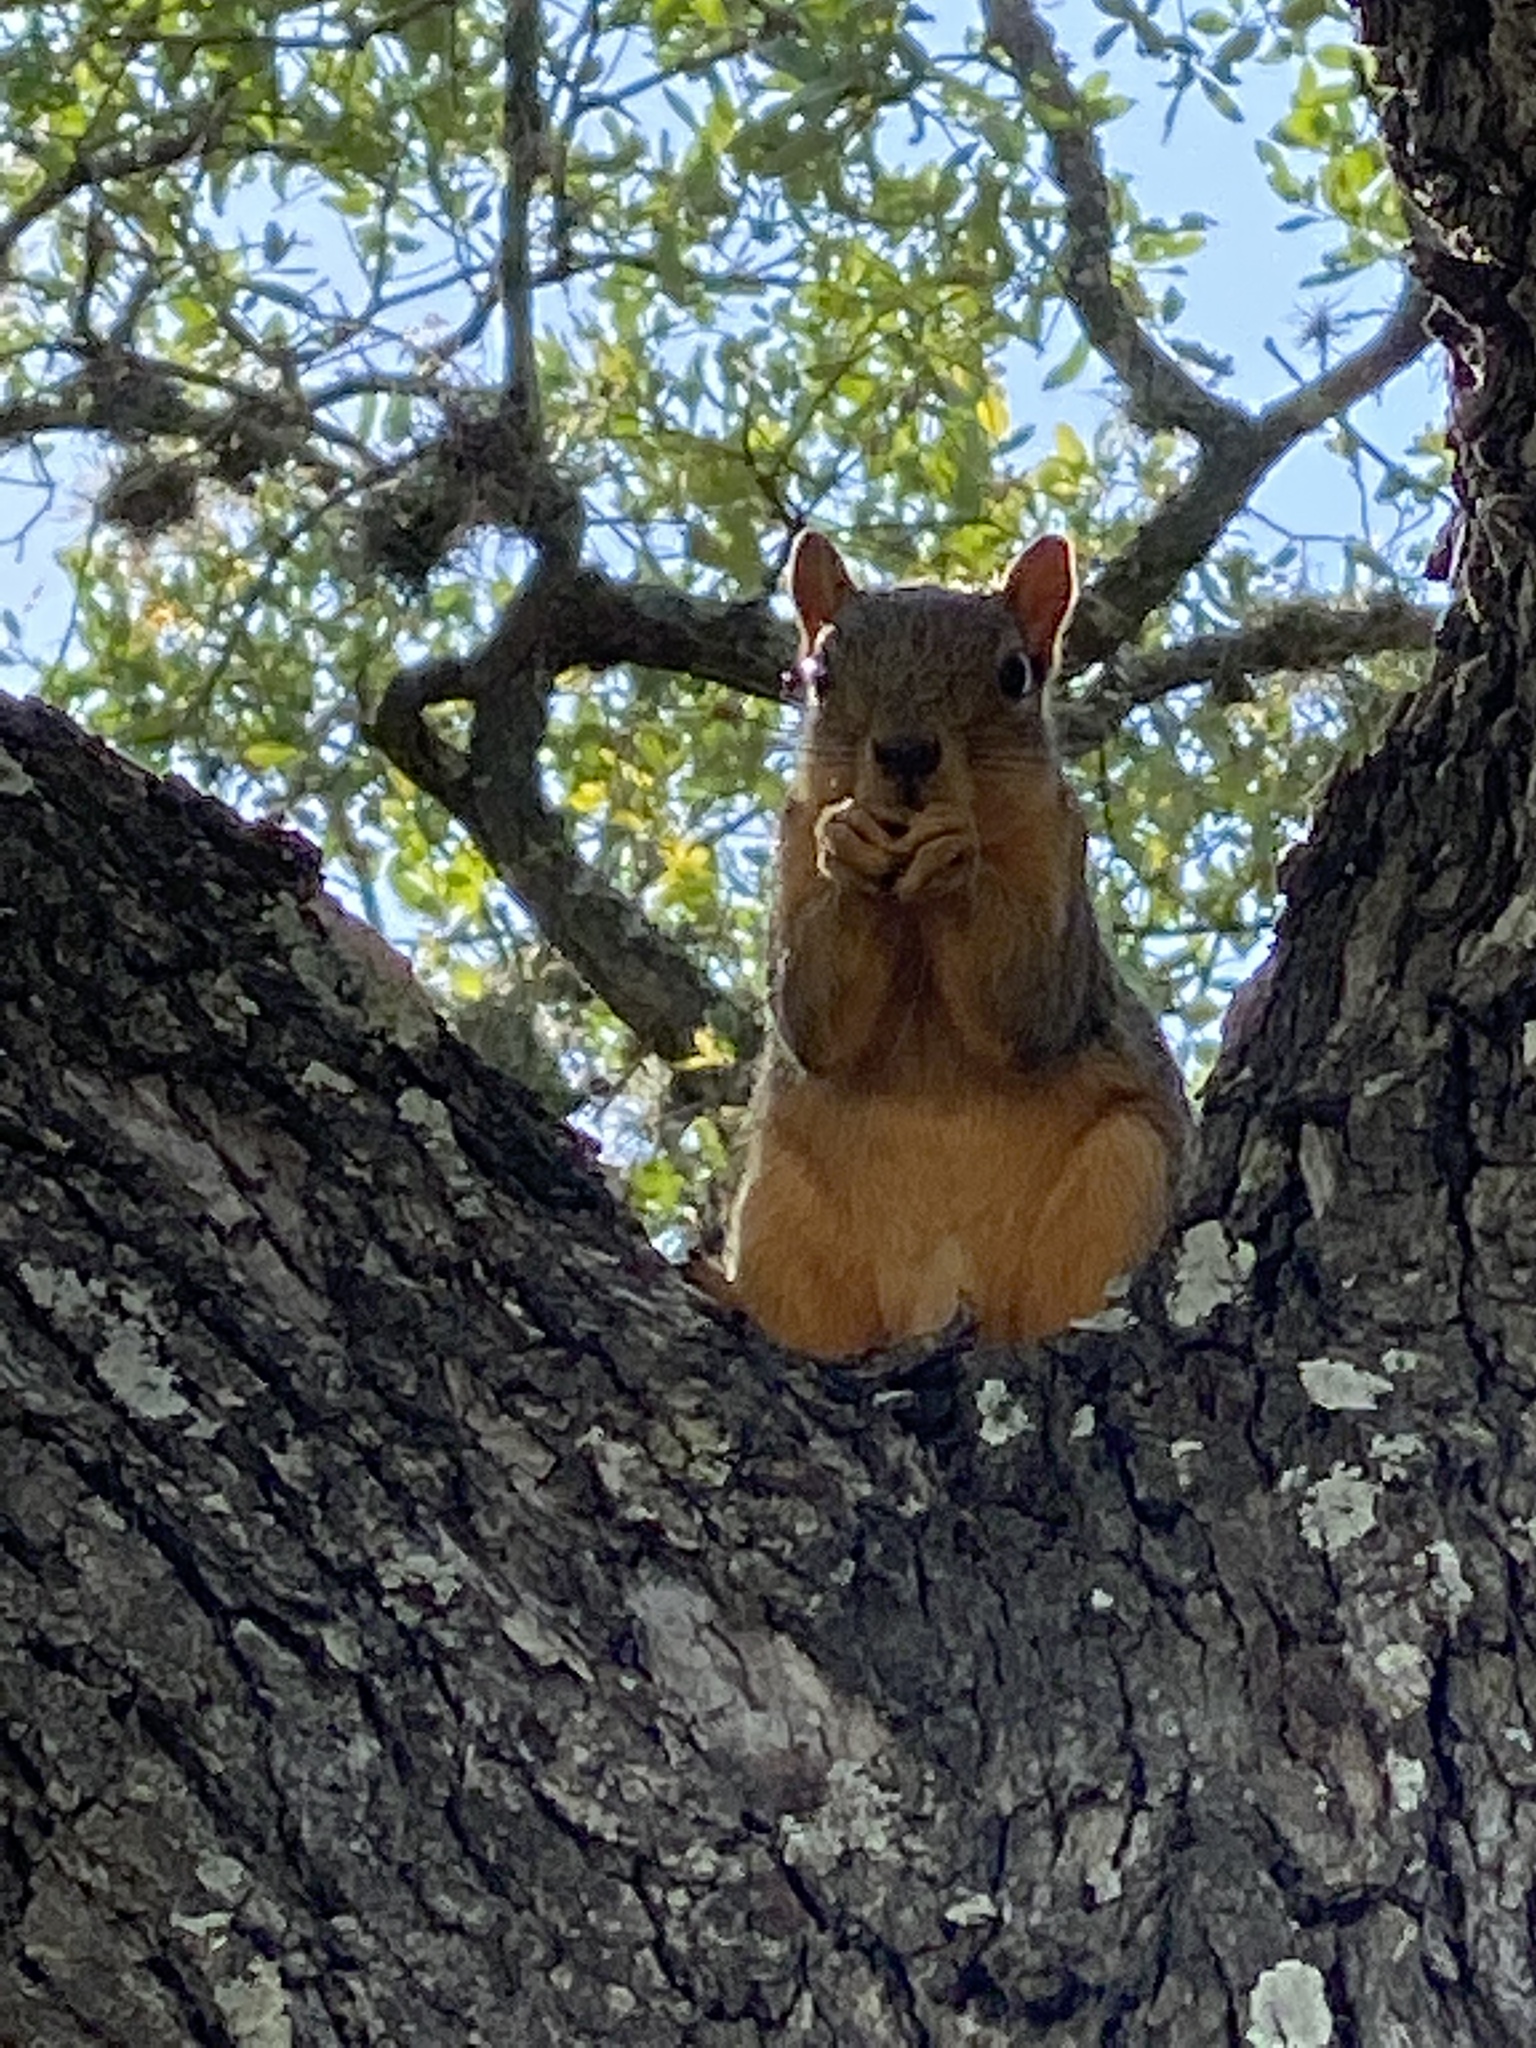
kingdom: Animalia
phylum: Chordata
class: Mammalia
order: Rodentia
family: Sciuridae
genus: Sciurus
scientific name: Sciurus niger
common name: Fox squirrel
